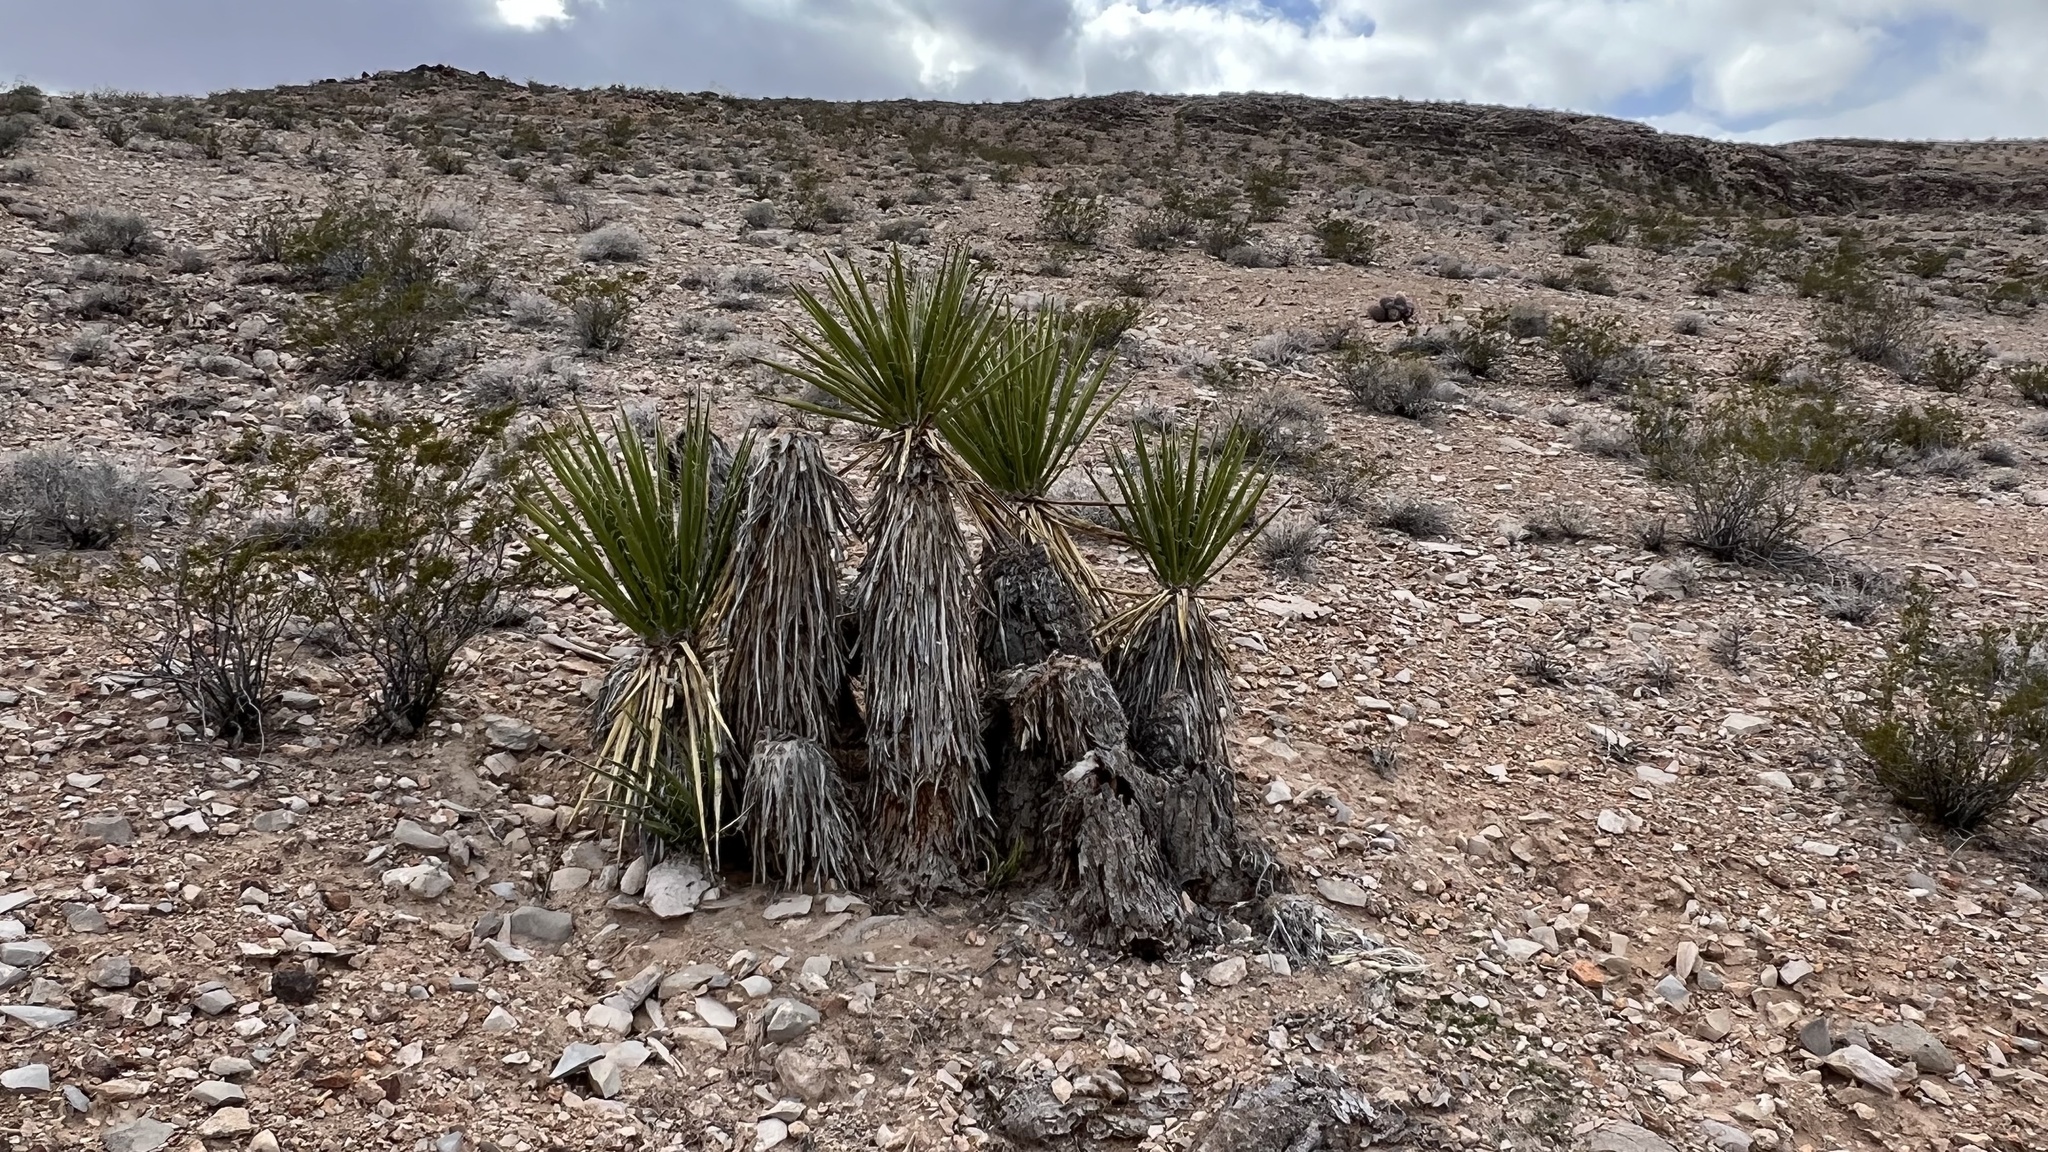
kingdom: Plantae
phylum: Tracheophyta
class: Liliopsida
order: Asparagales
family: Asparagaceae
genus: Yucca
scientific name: Yucca schidigera
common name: Mojave yucca
